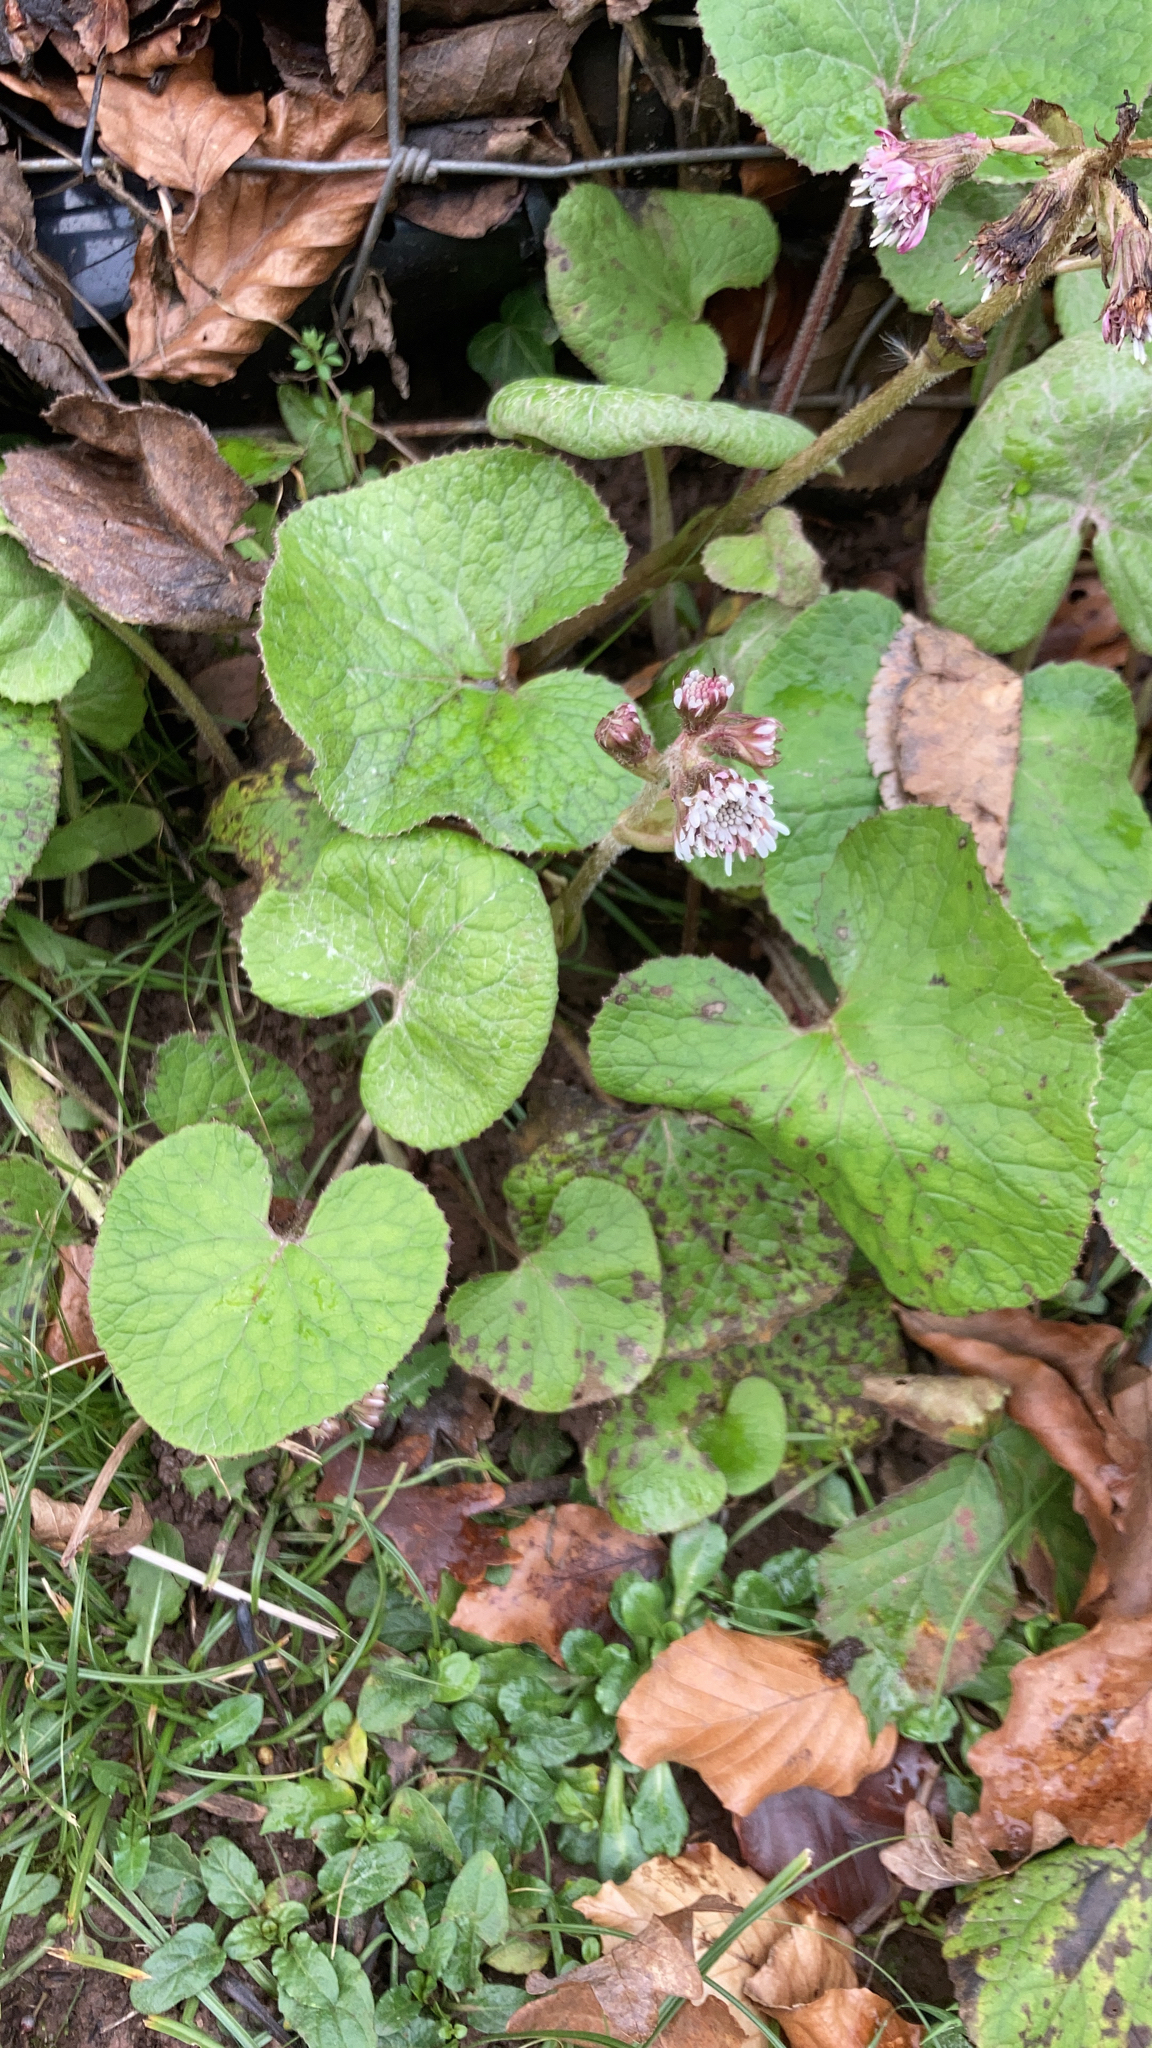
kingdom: Plantae
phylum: Tracheophyta
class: Magnoliopsida
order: Asterales
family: Asteraceae
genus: Petasites
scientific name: Petasites pyrenaicus
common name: Winter heliotrope
